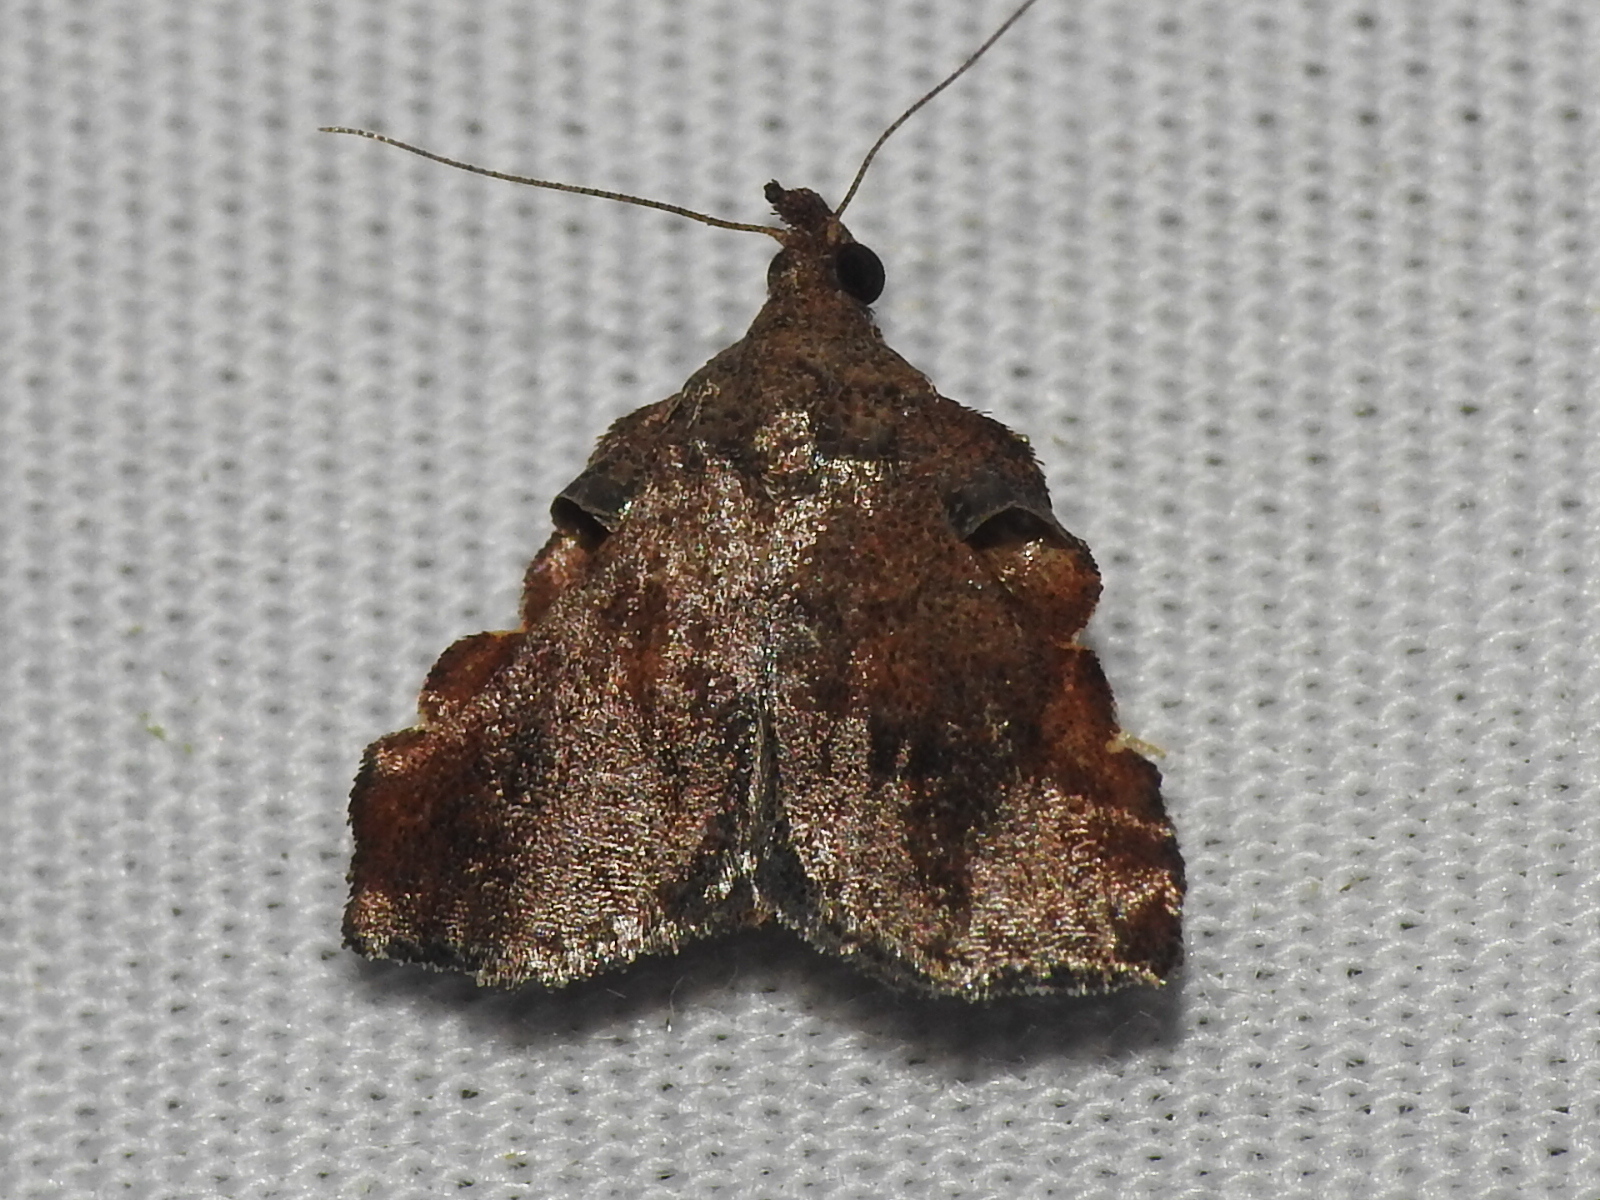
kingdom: Animalia
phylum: Arthropoda
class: Insecta
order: Lepidoptera
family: Pyralidae
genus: Salobrena
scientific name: Salobrena sincera
